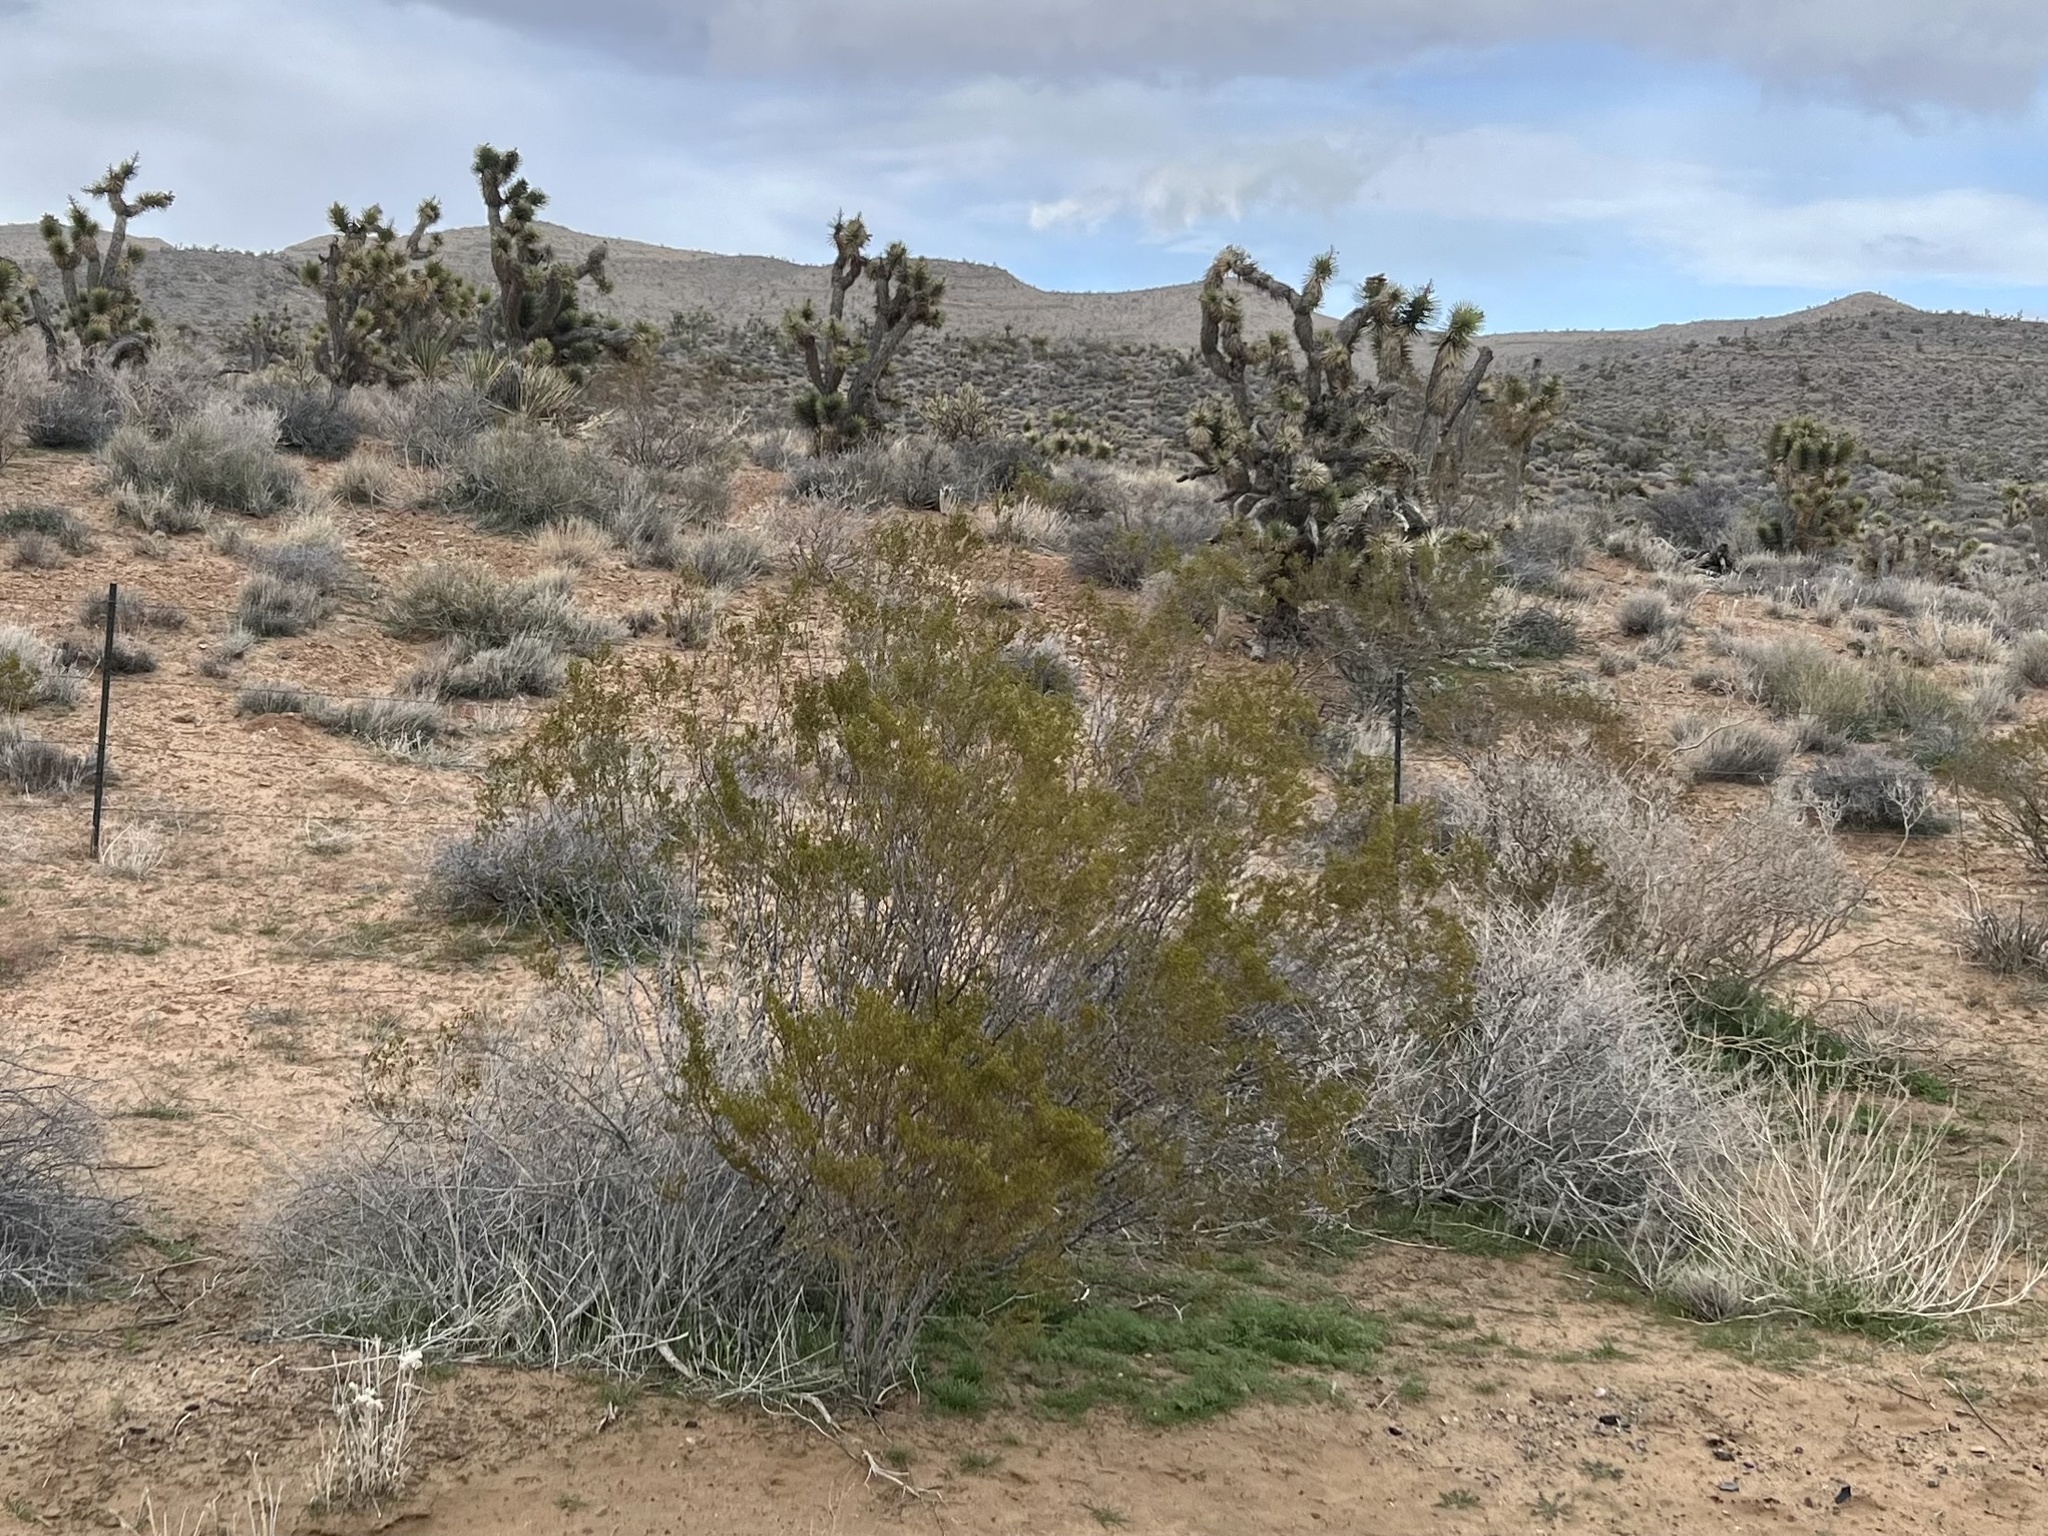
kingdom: Plantae
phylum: Tracheophyta
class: Magnoliopsida
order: Zygophyllales
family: Zygophyllaceae
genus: Larrea
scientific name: Larrea tridentata
